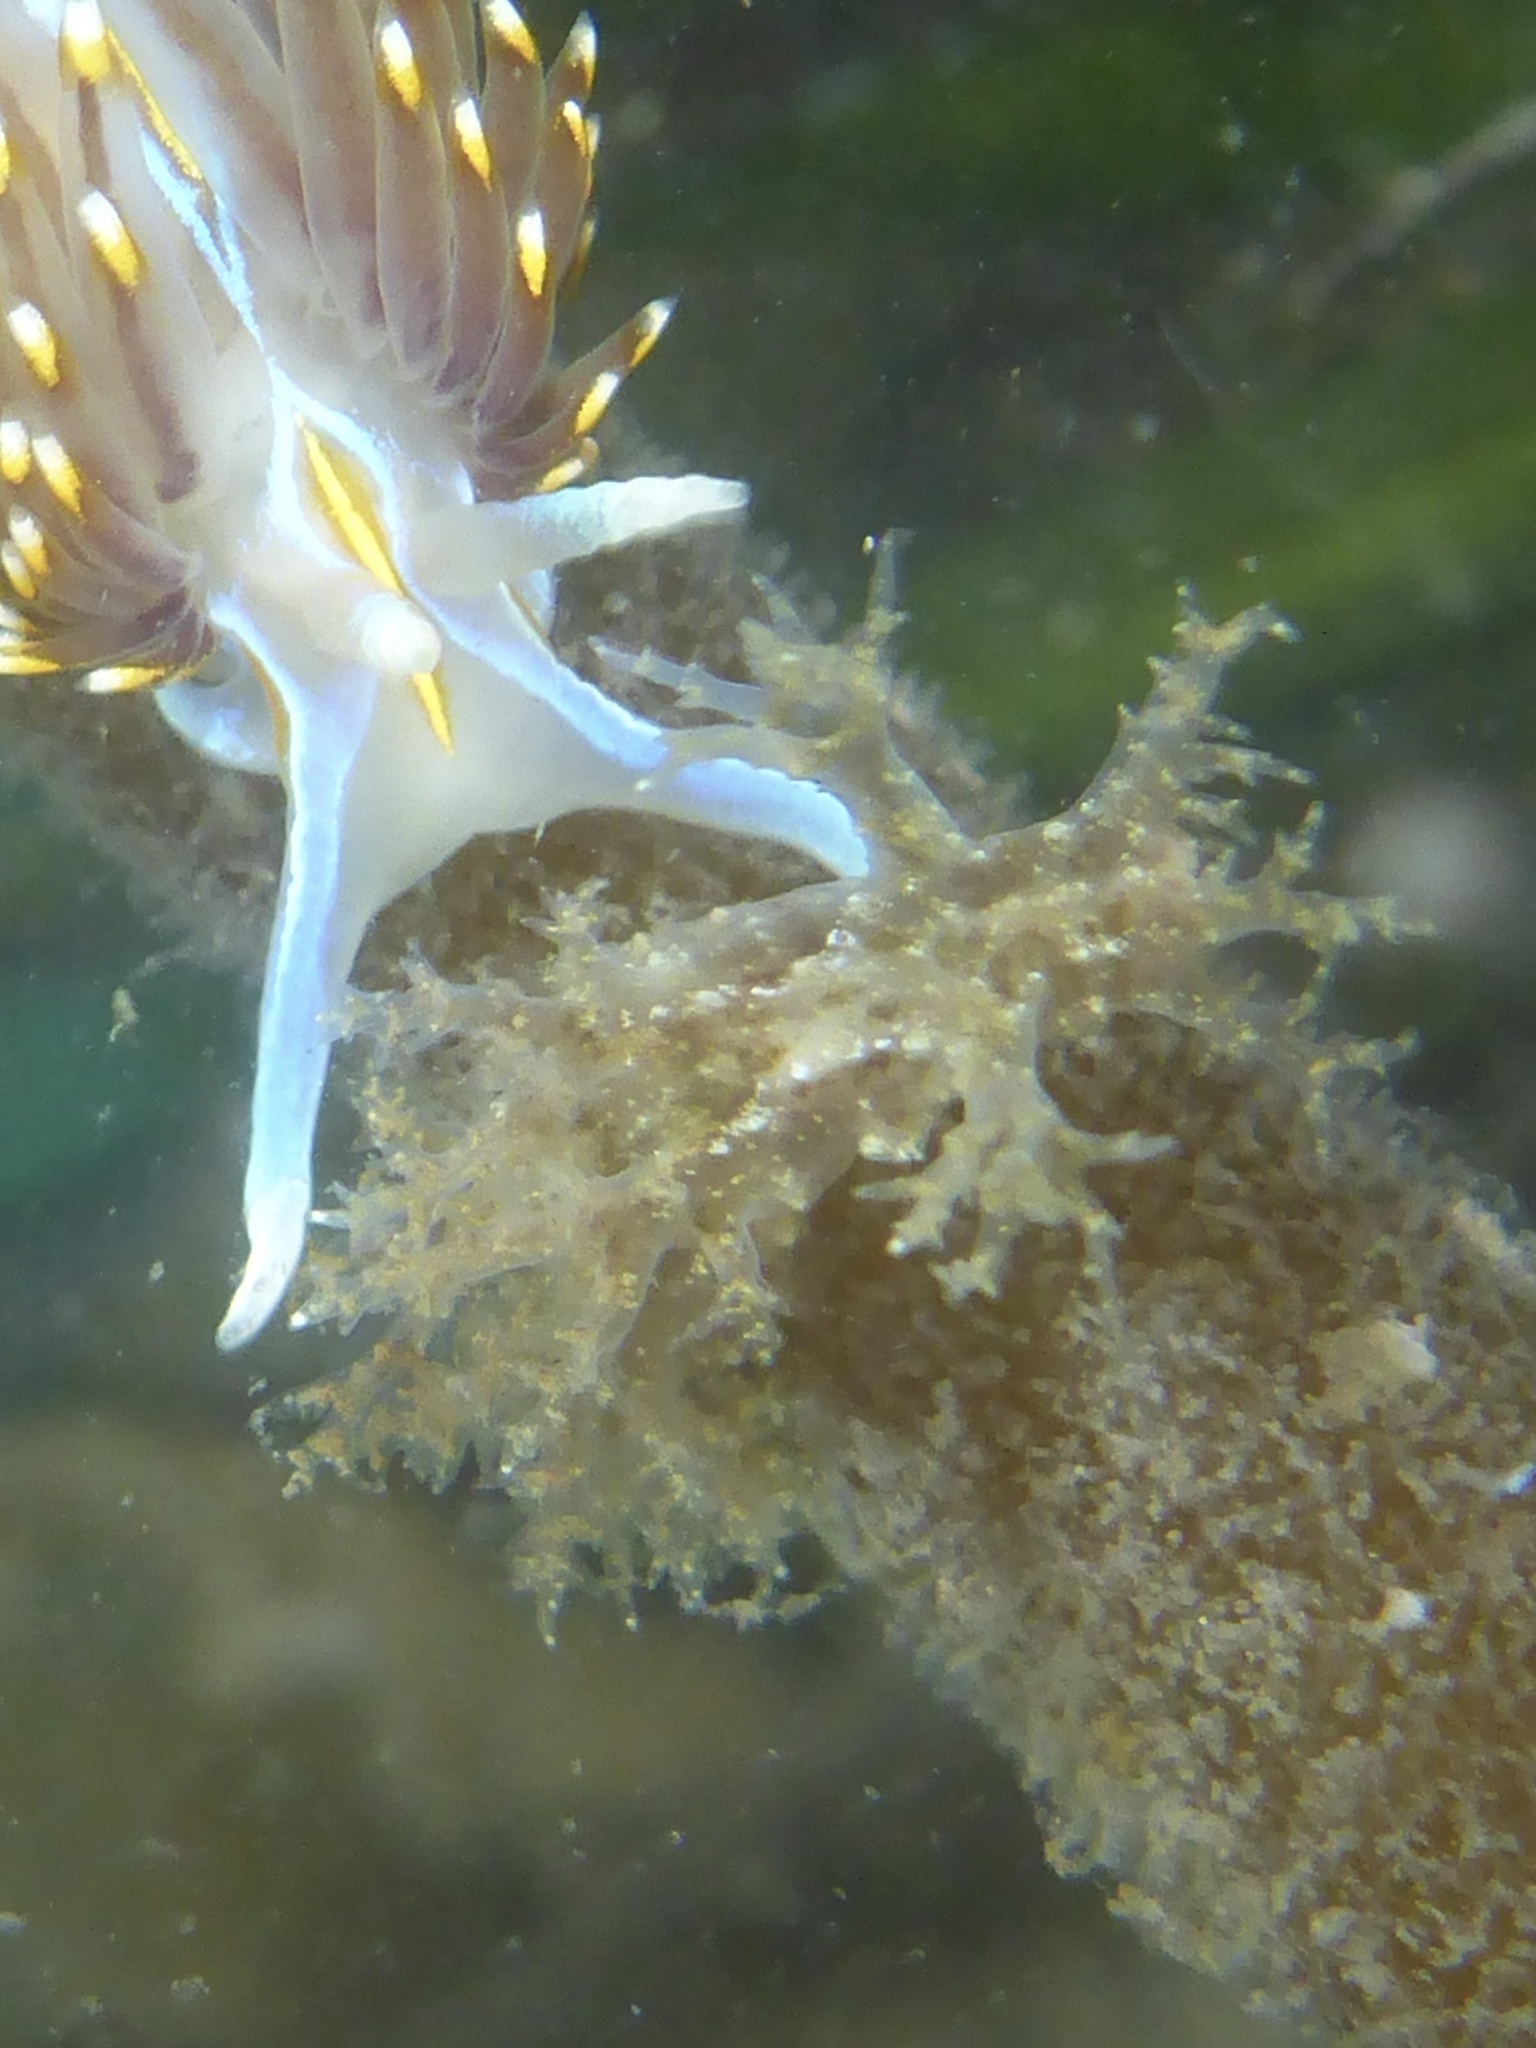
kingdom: Animalia
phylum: Mollusca
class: Gastropoda
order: Nudibranchia
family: Dendronotidae
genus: Dendronotus
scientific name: Dendronotus venustus
